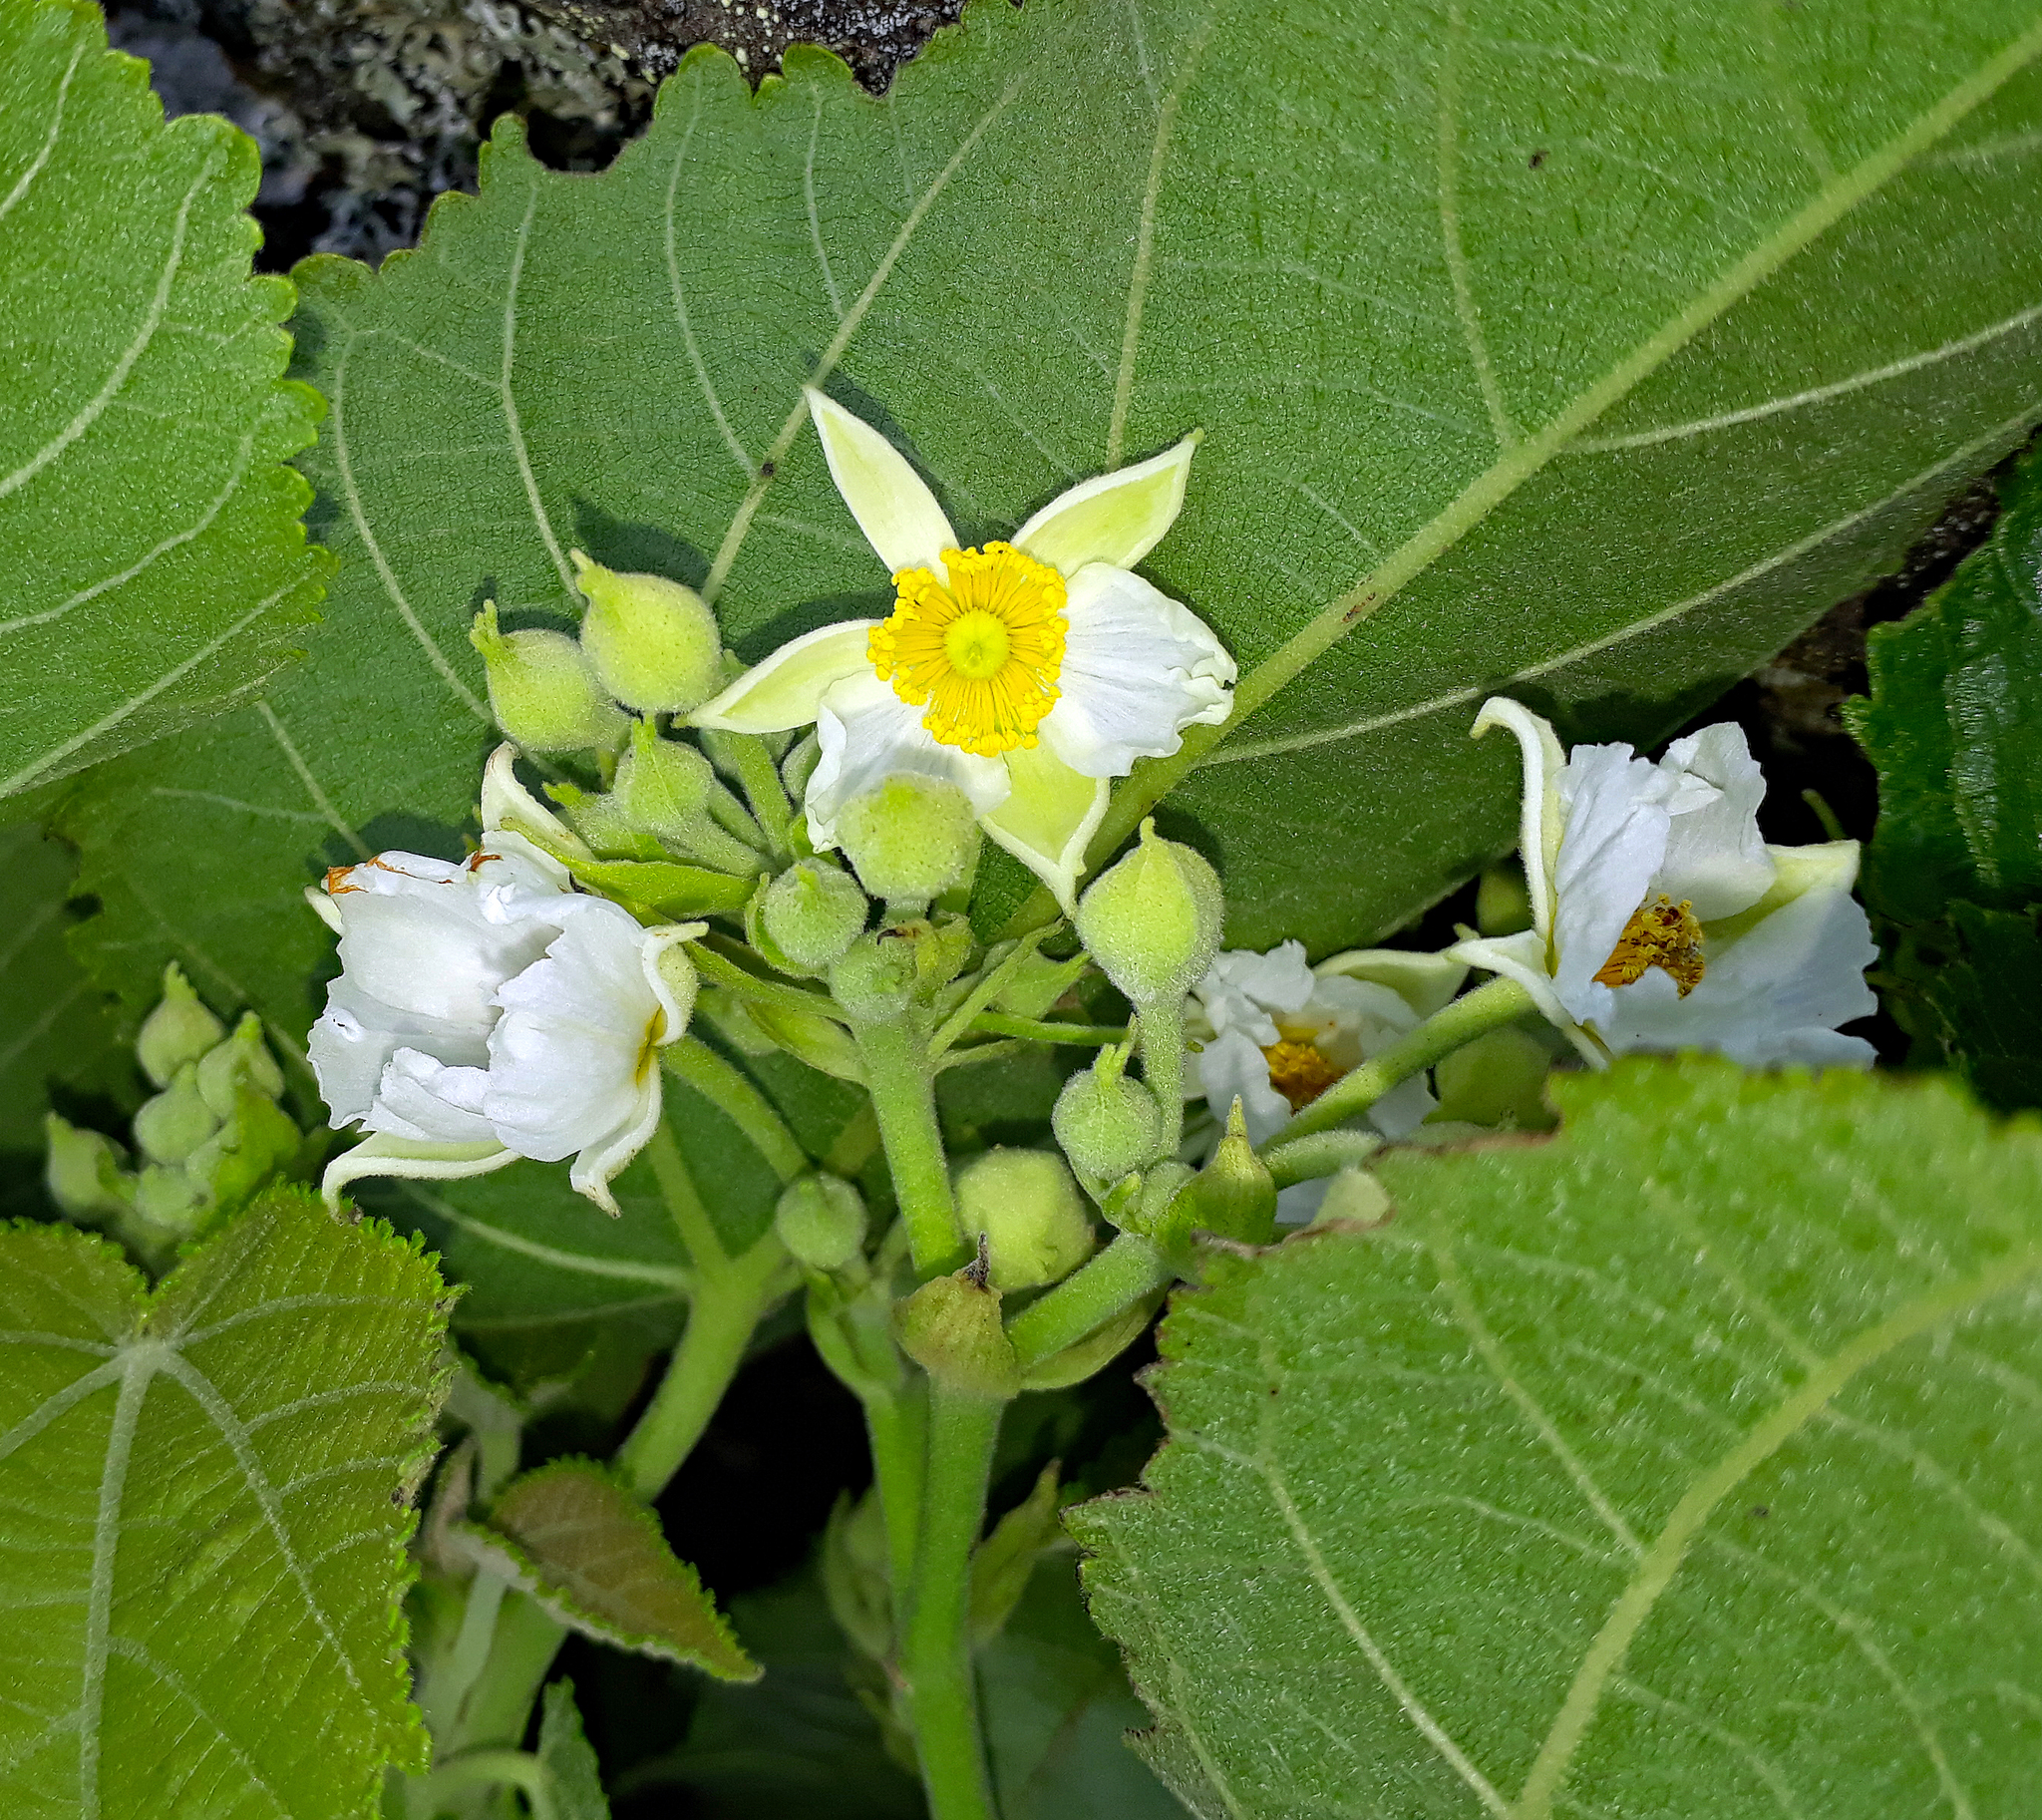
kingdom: Plantae
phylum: Tracheophyta
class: Magnoliopsida
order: Malvales
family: Malvaceae
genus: Entelea
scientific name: Entelea arborescens
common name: New zealand-mulberry
